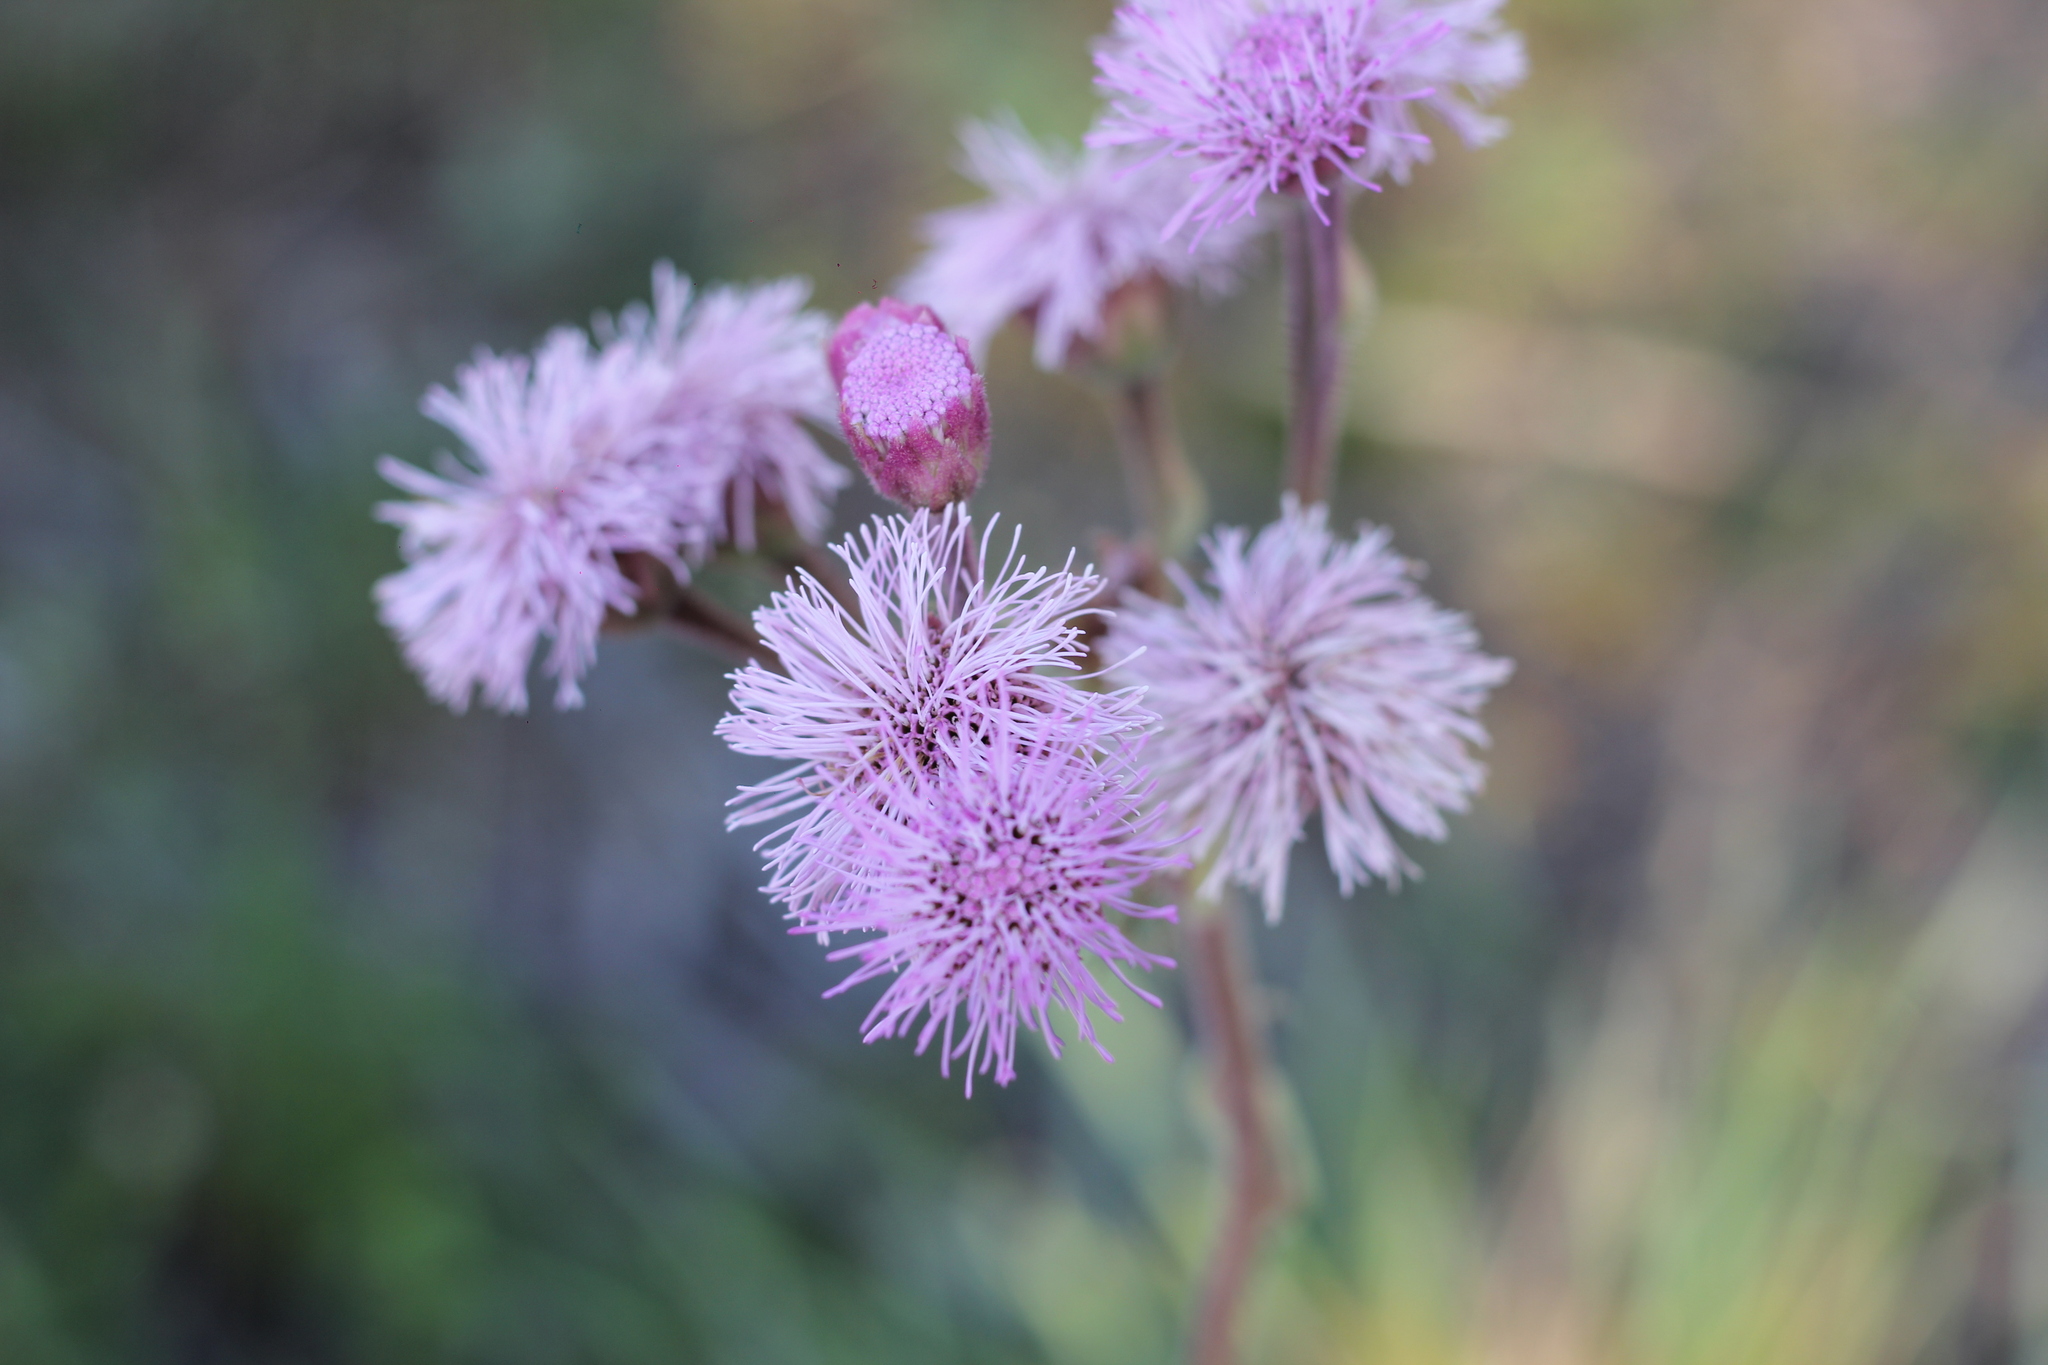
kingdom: Plantae
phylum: Tracheophyta
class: Magnoliopsida
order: Asterales
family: Asteraceae
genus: Campuloclinium
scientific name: Campuloclinium macrocephalum
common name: Pompomweed
